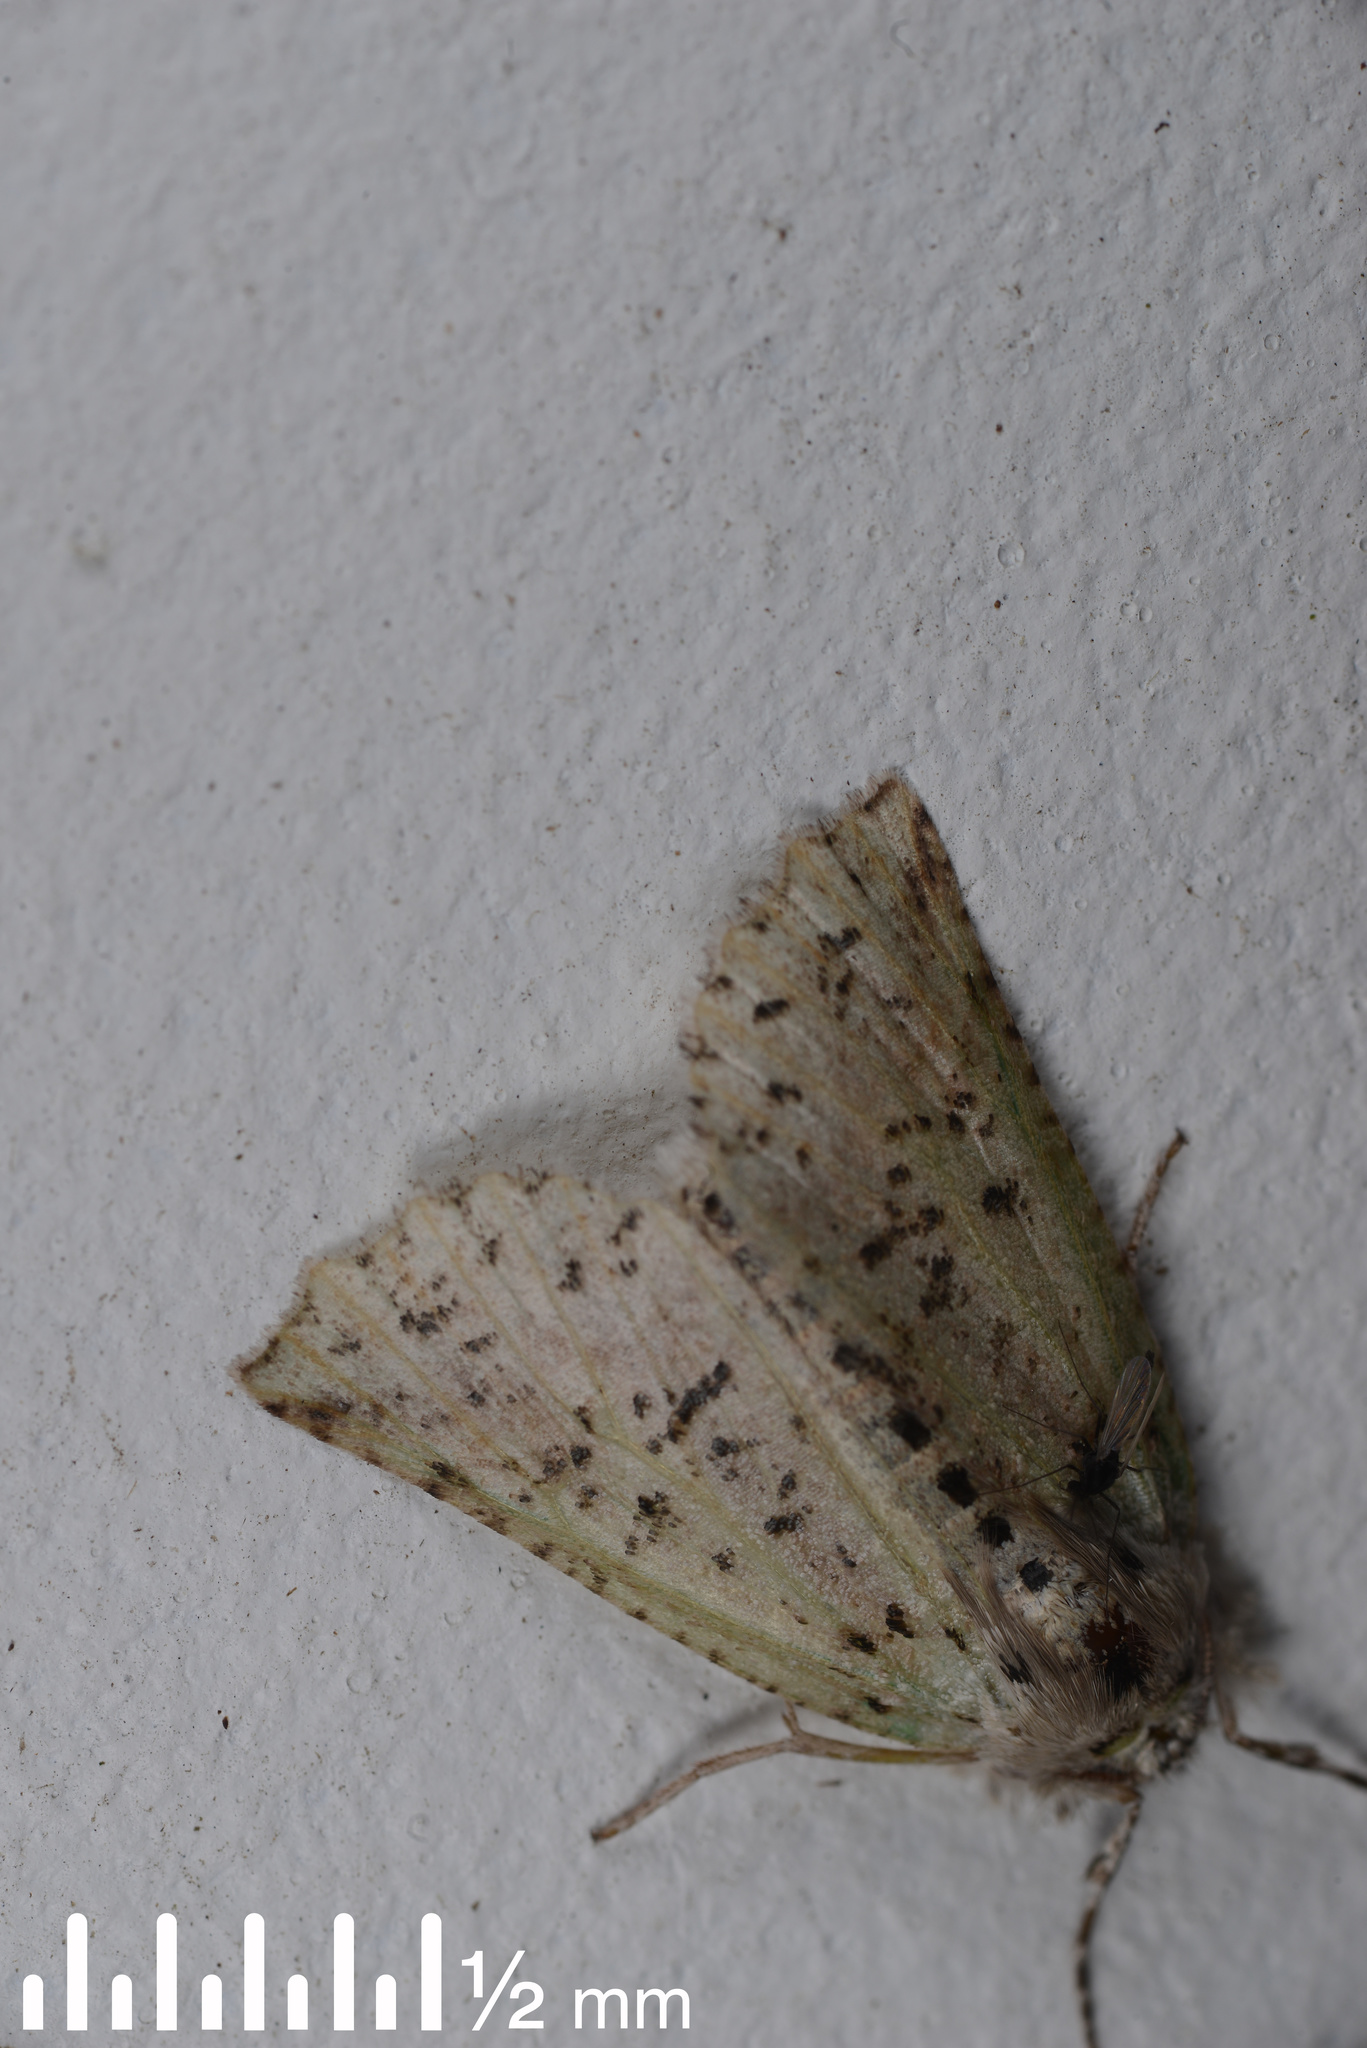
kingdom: Animalia
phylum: Arthropoda
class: Insecta
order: Lepidoptera
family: Geometridae
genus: Declana
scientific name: Declana floccosa
